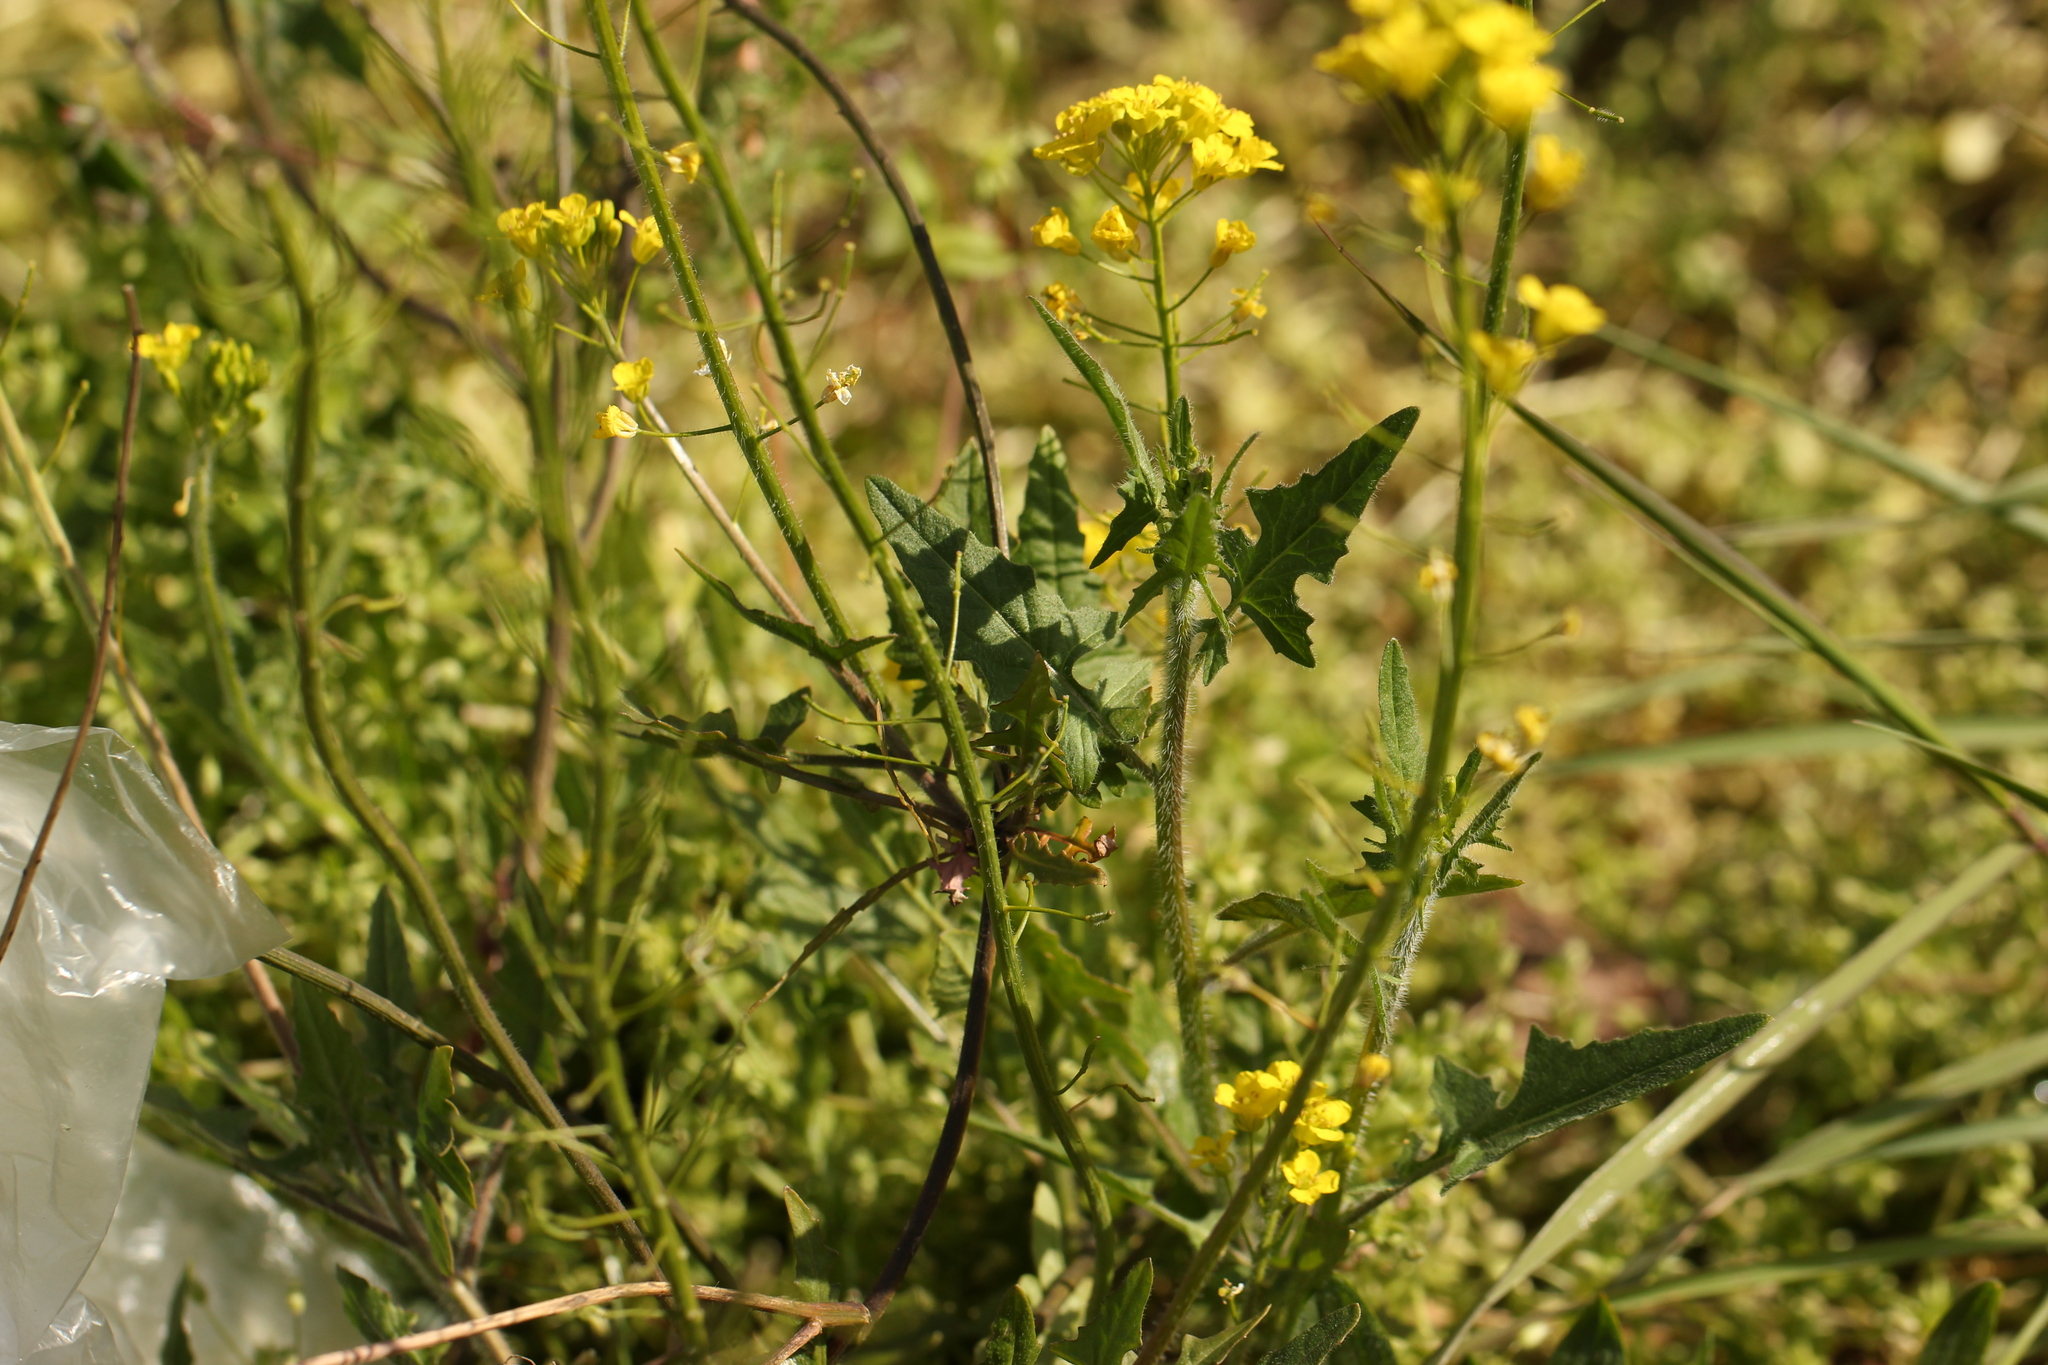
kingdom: Plantae
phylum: Tracheophyta
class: Magnoliopsida
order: Brassicales
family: Brassicaceae
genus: Sisymbrium
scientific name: Sisymbrium loeselii
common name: False london-rocket
